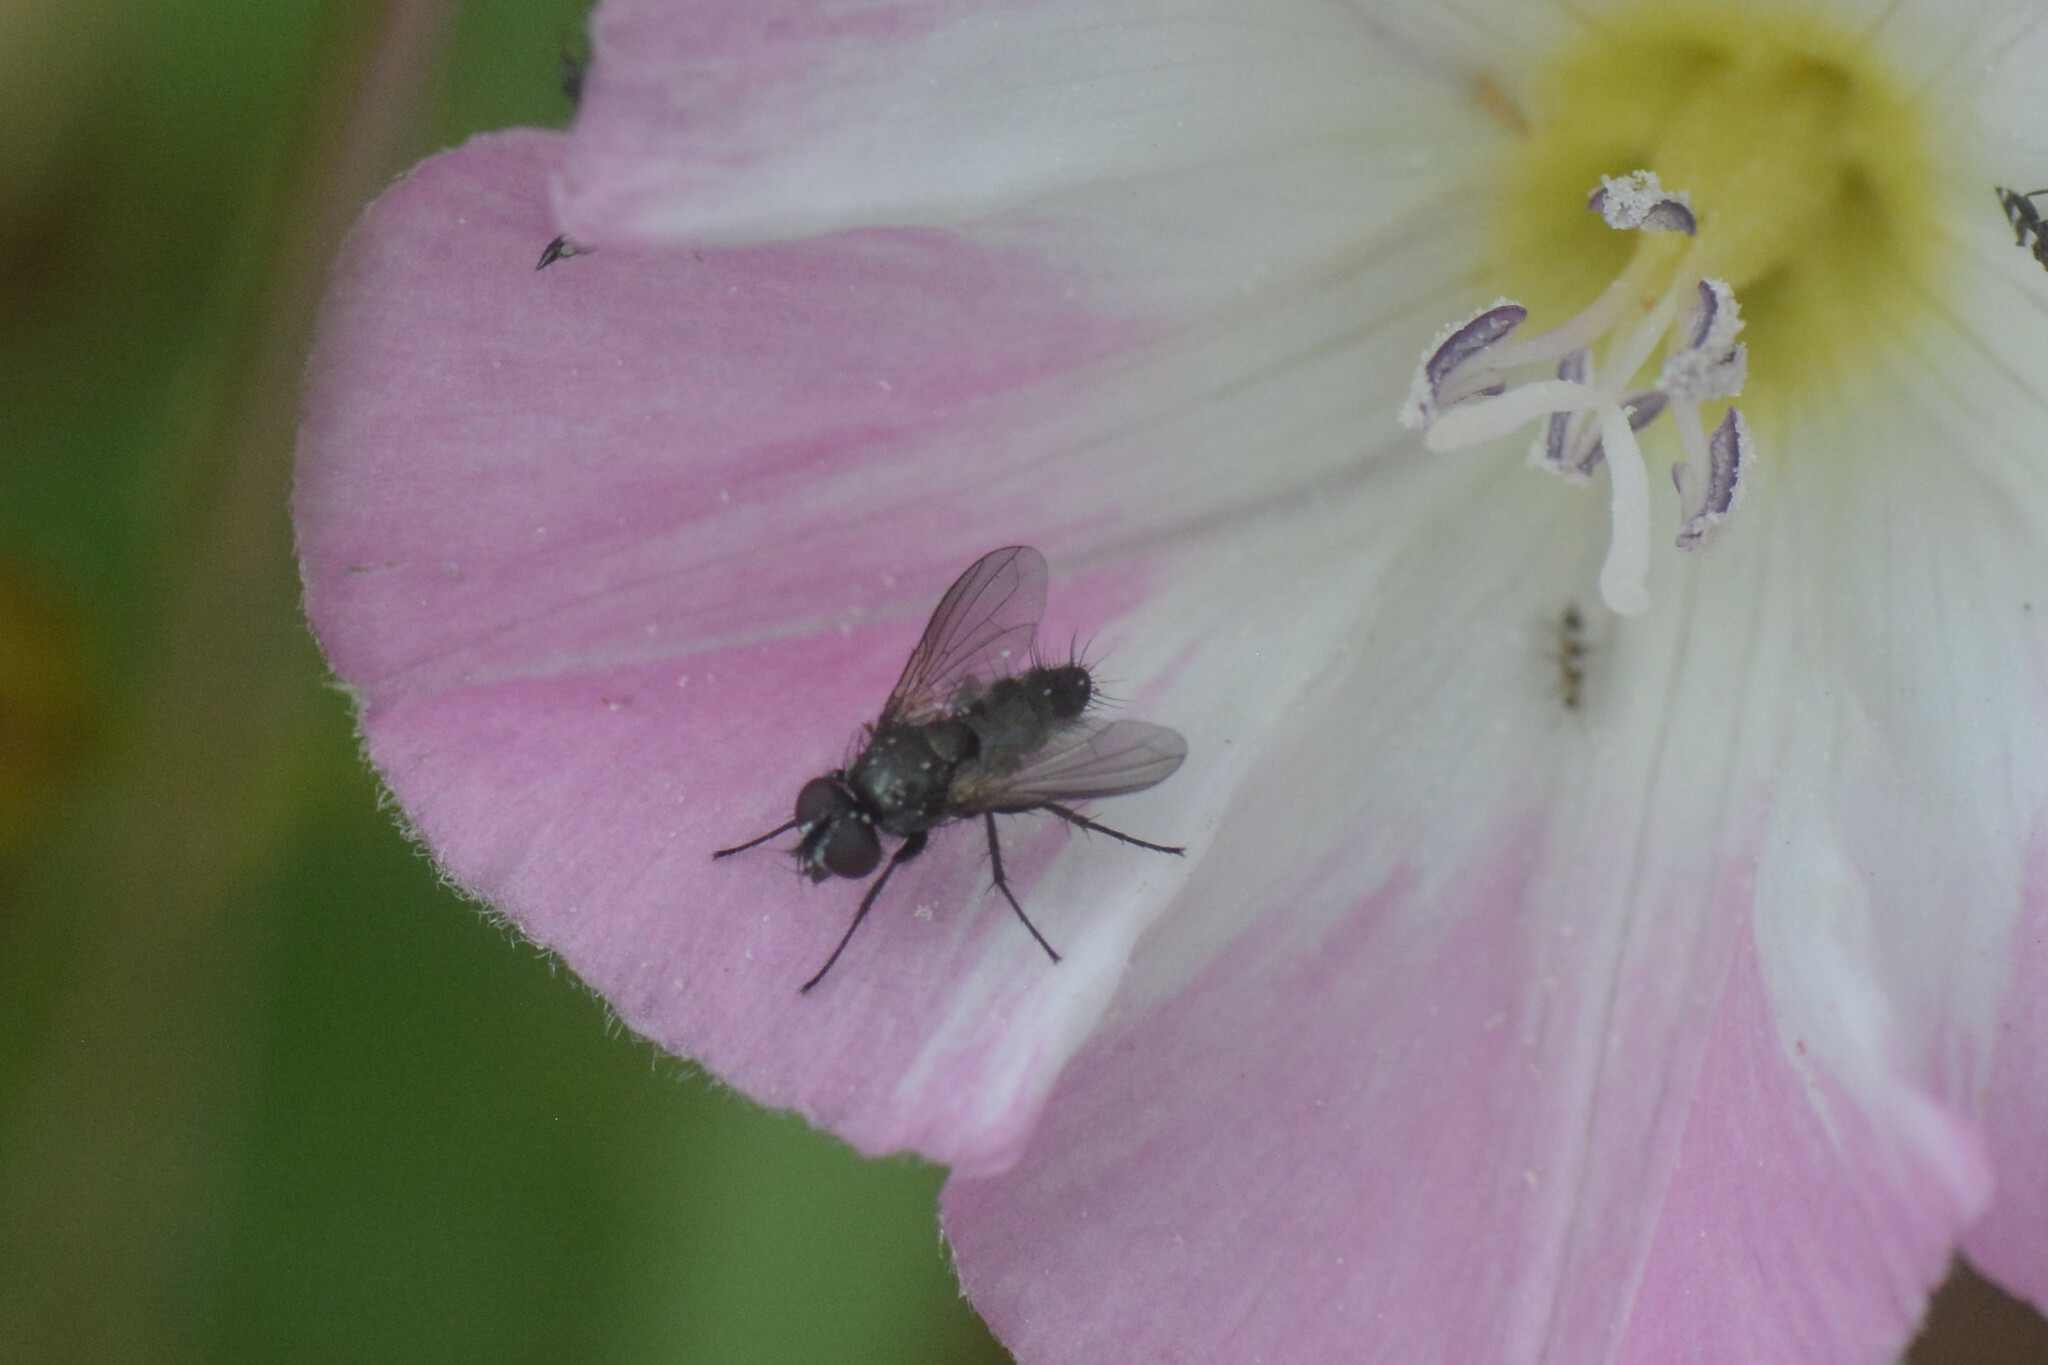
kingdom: Animalia
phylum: Arthropoda
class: Insecta
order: Diptera
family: Calliphoridae
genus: Rhinophora
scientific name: Rhinophora lepida
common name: Pouting woodlouse-fly
